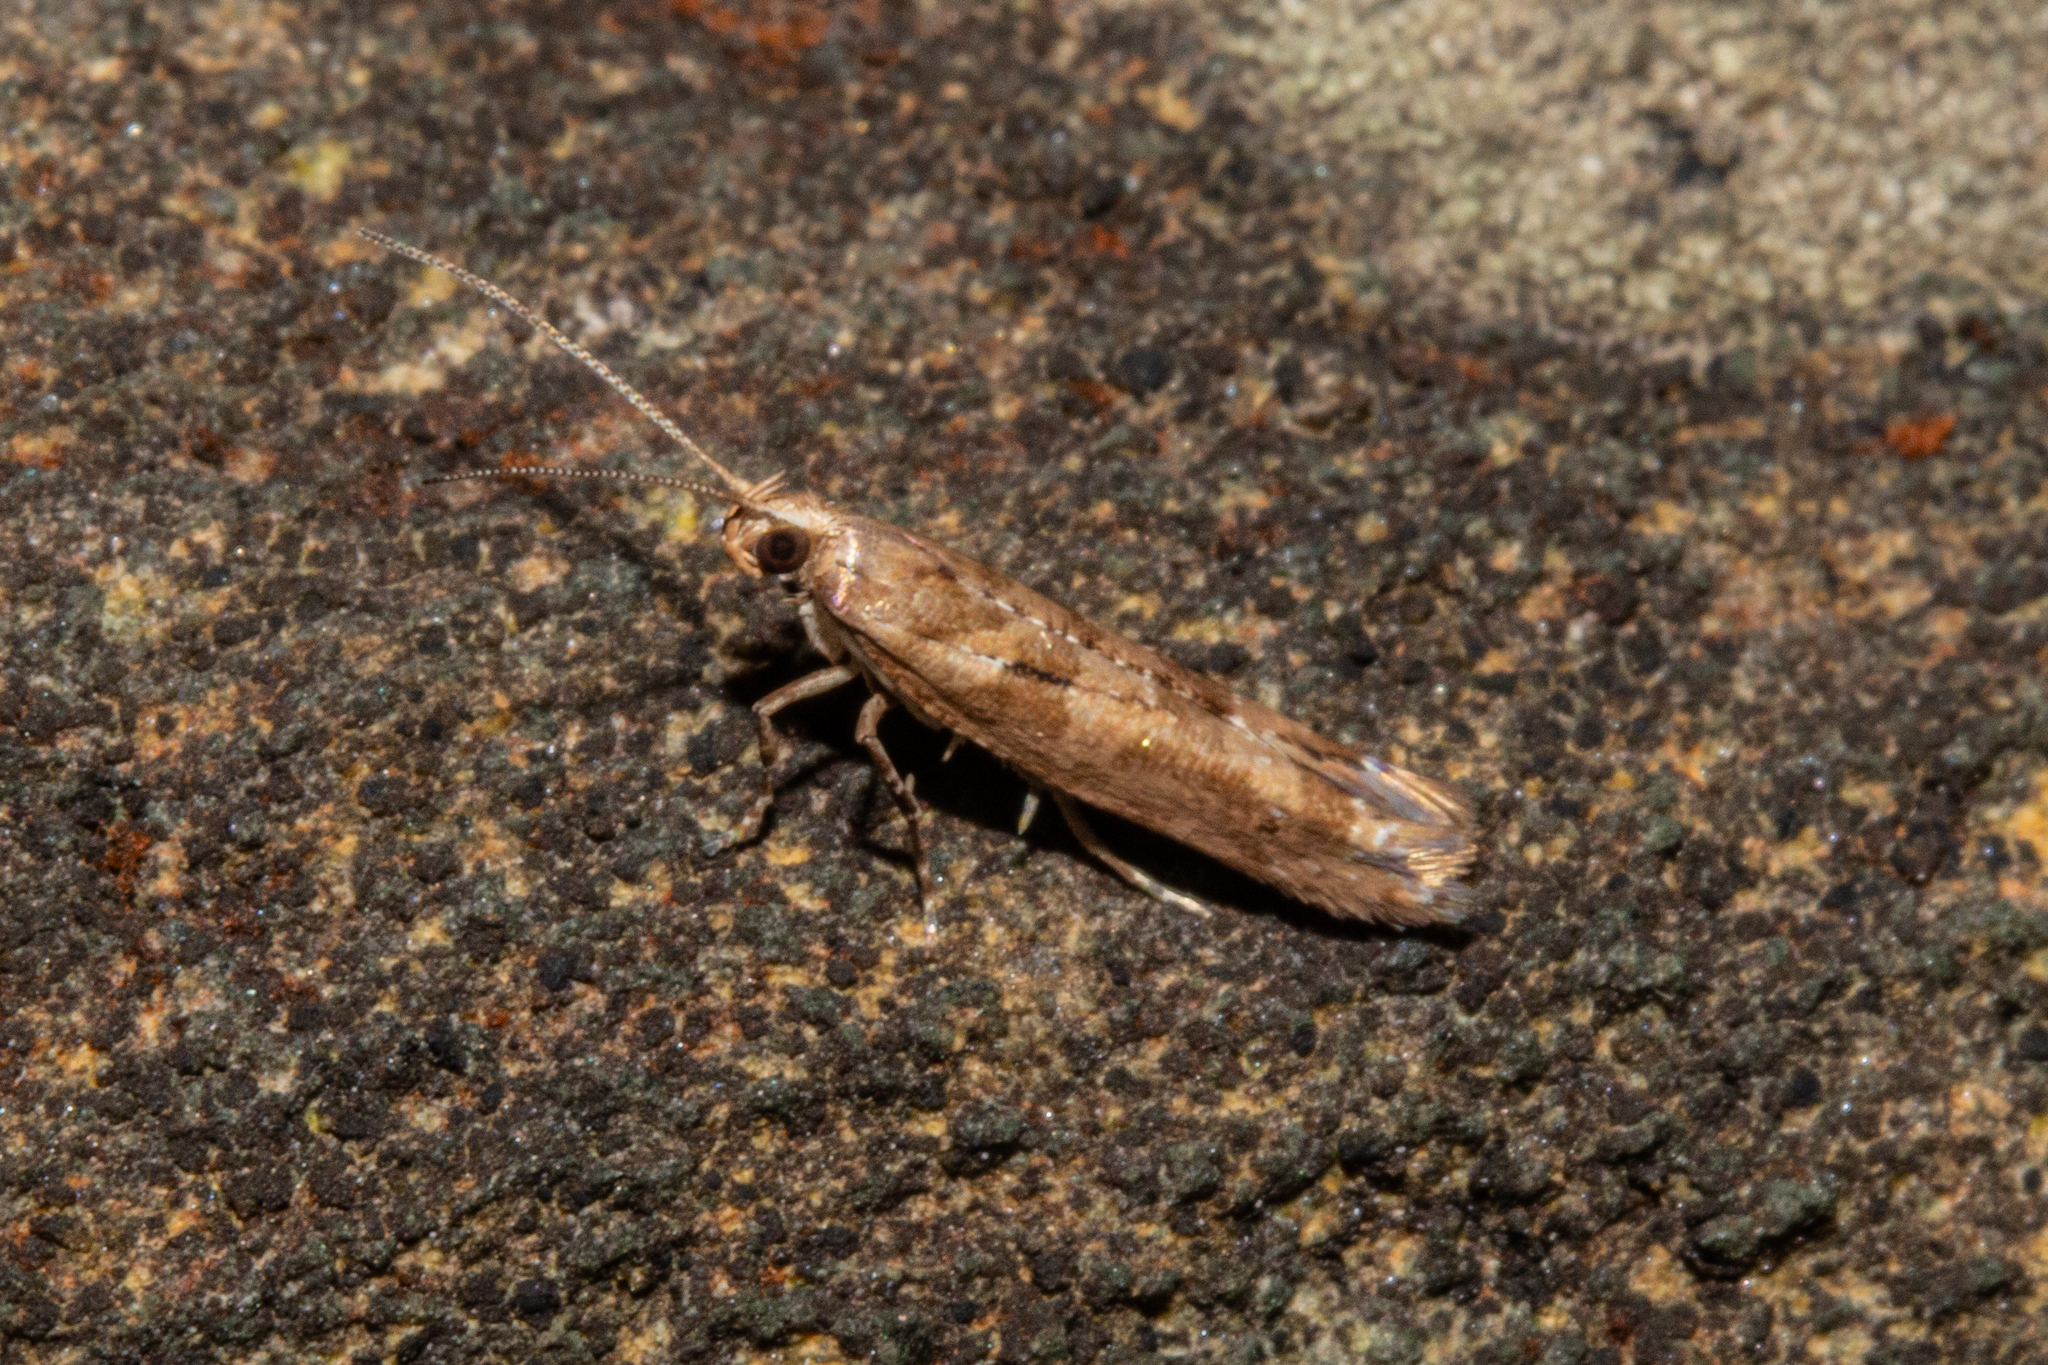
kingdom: Animalia
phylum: Arthropoda
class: Insecta
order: Lepidoptera
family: Glyphipterigidae
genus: Chrysorthenches
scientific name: Chrysorthenches porphyritis
